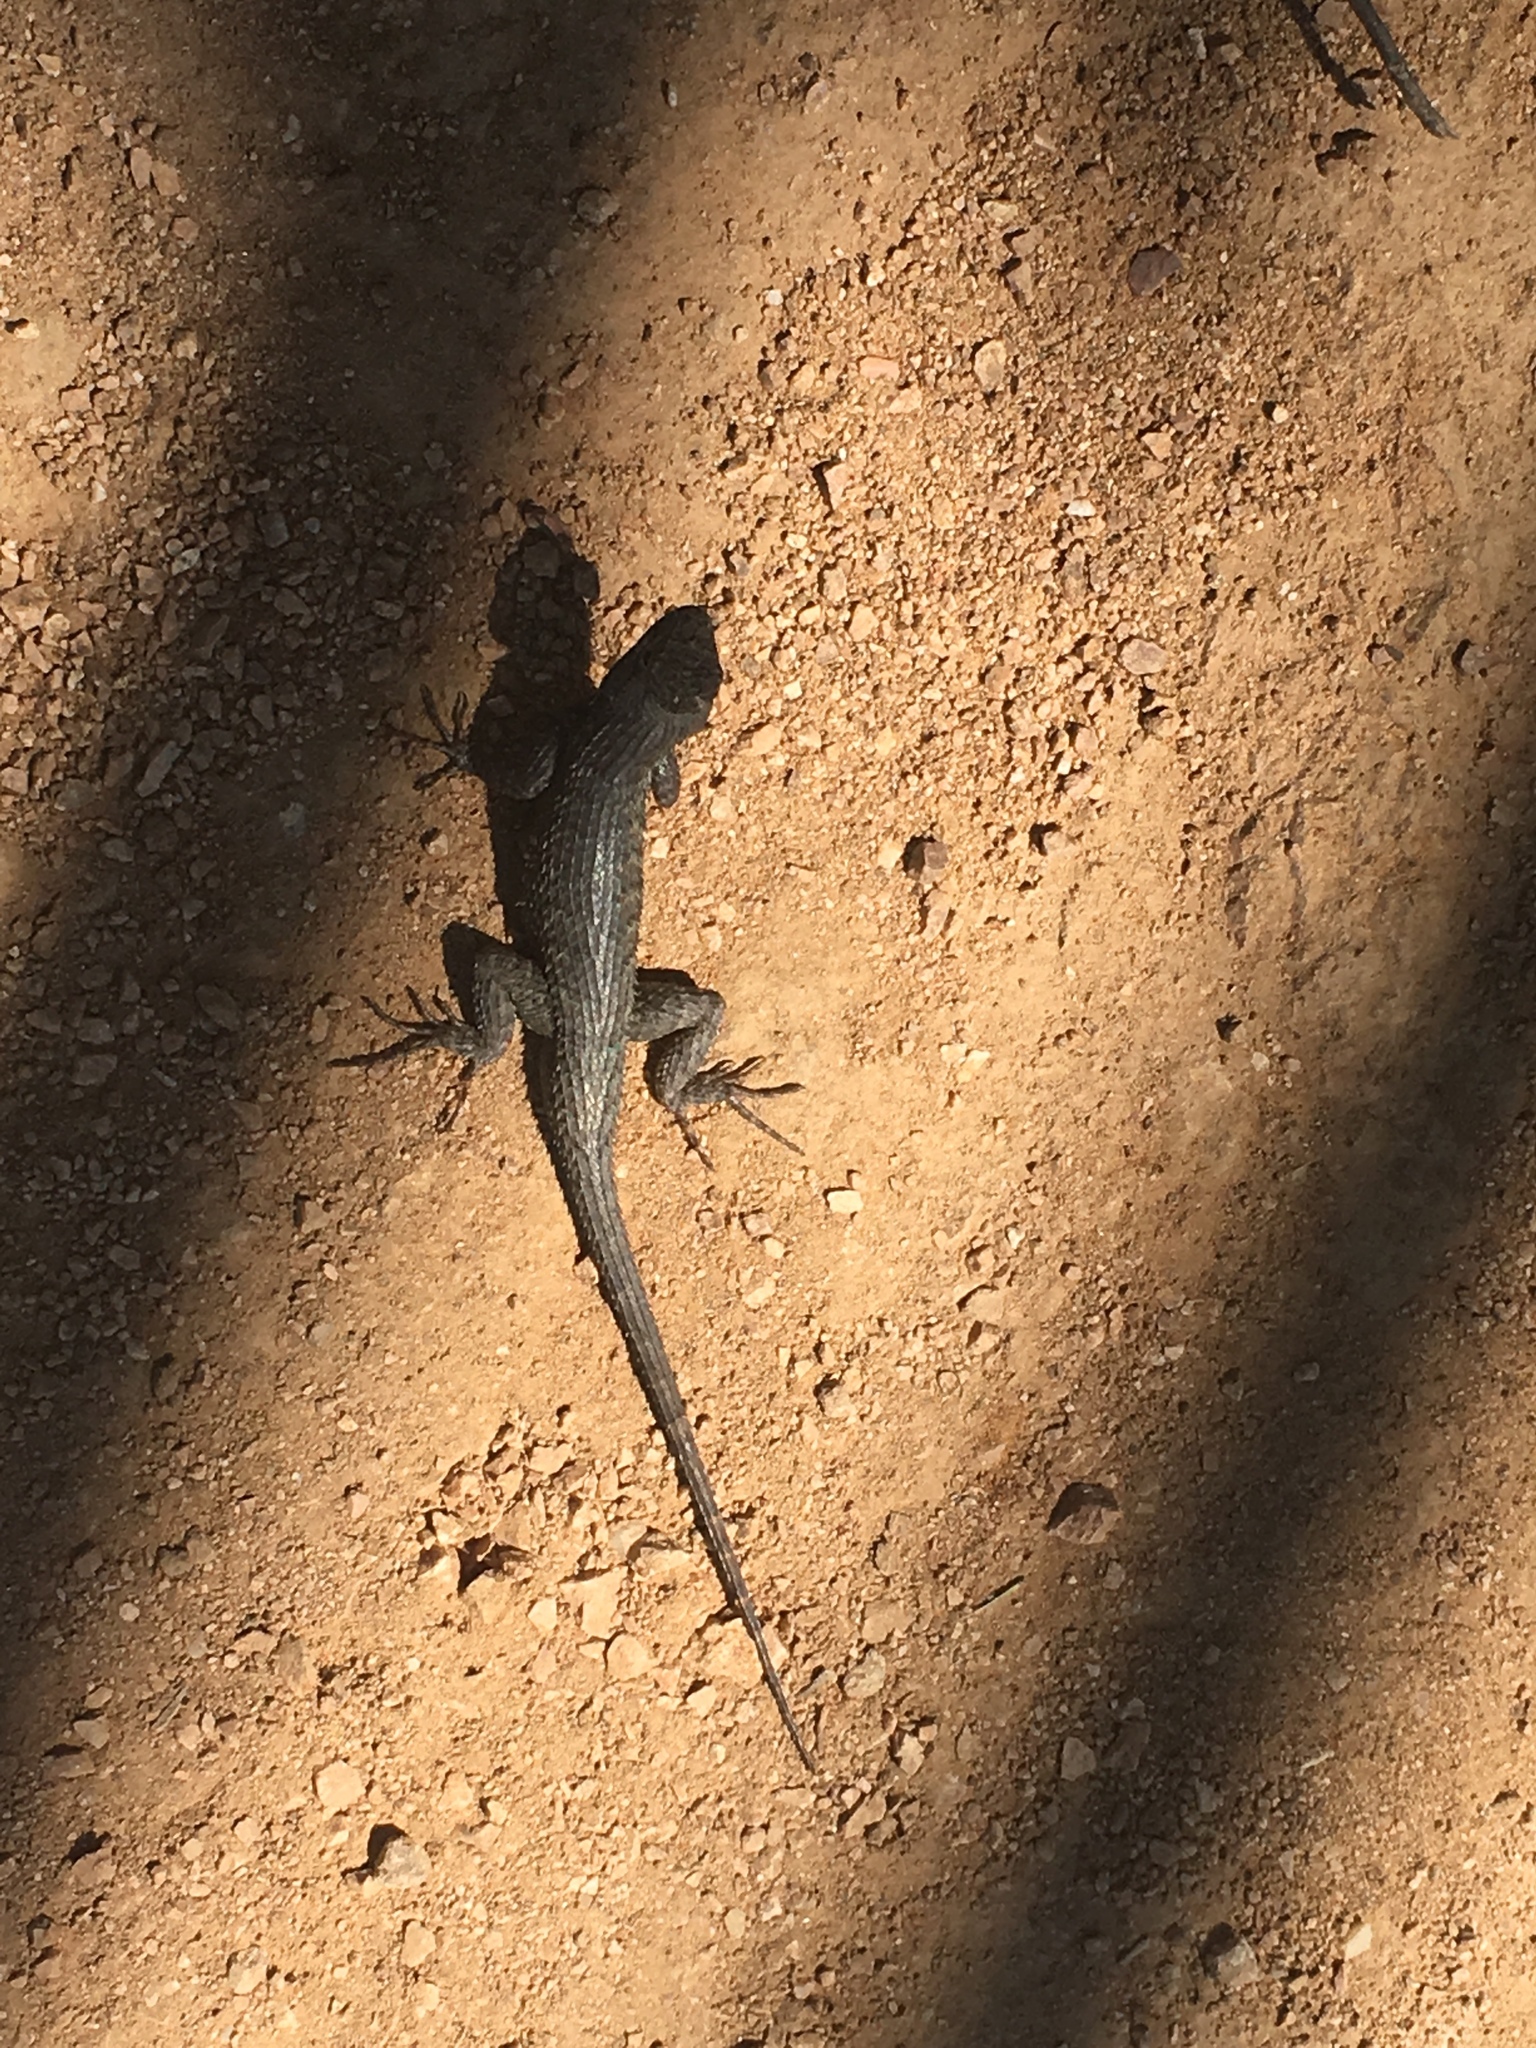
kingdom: Animalia
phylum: Chordata
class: Squamata
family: Phrynosomatidae
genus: Sceloporus
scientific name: Sceloporus occidentalis
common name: Western fence lizard
